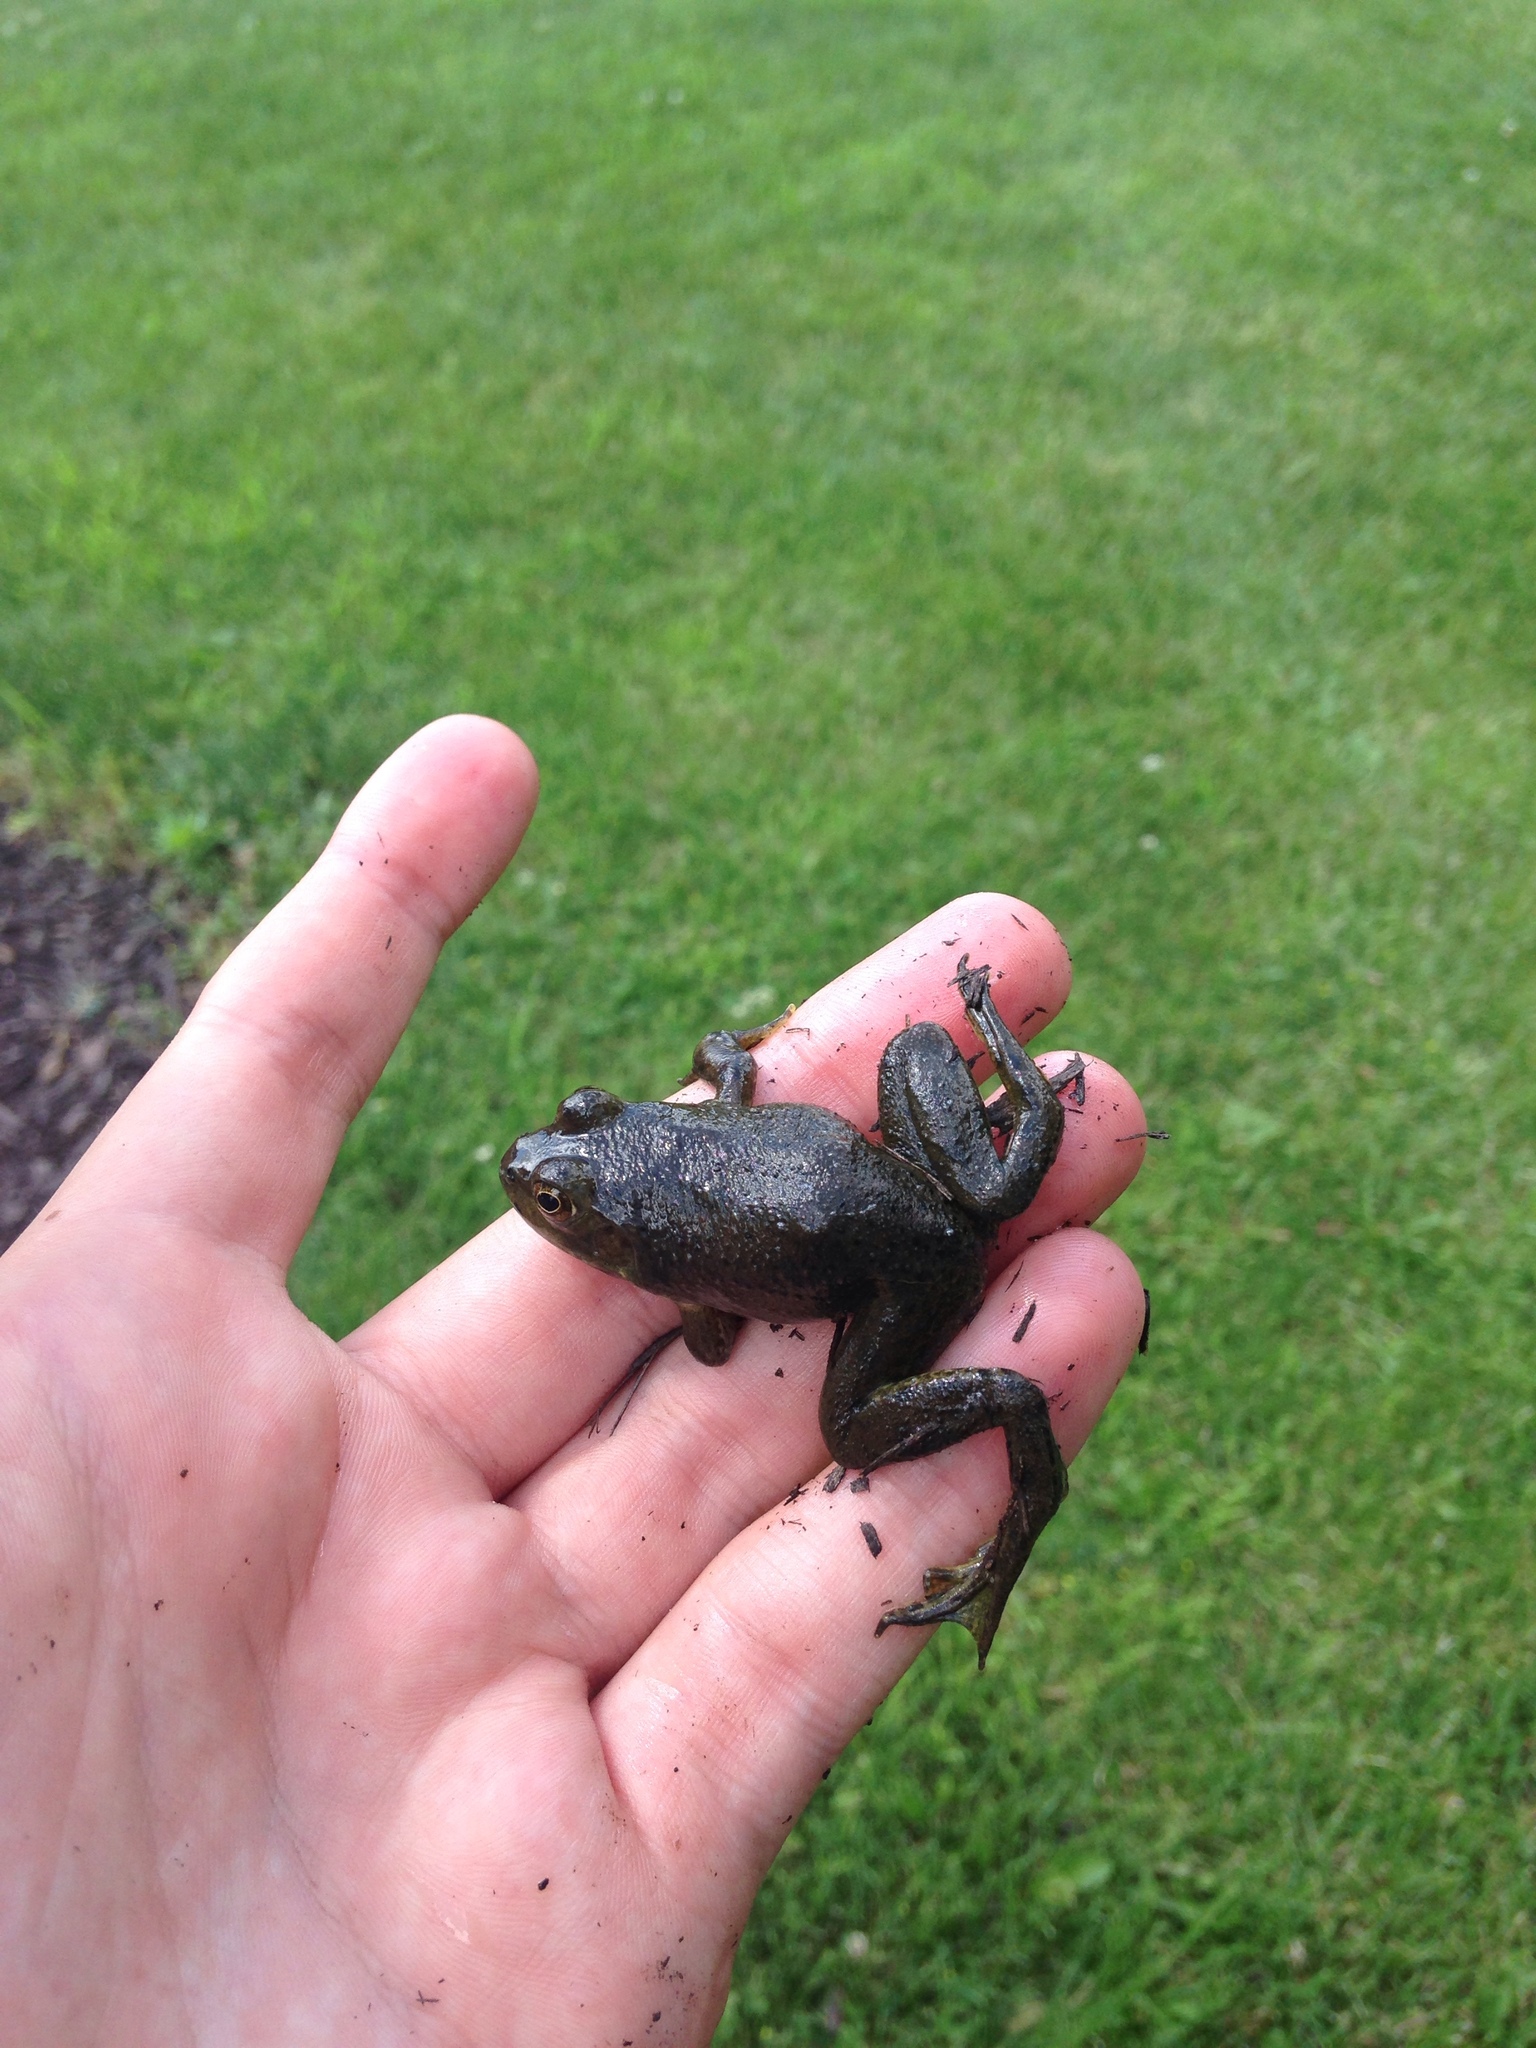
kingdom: Animalia
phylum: Chordata
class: Amphibia
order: Anura
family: Ranidae
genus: Lithobates
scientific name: Lithobates catesbeianus
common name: American bullfrog
